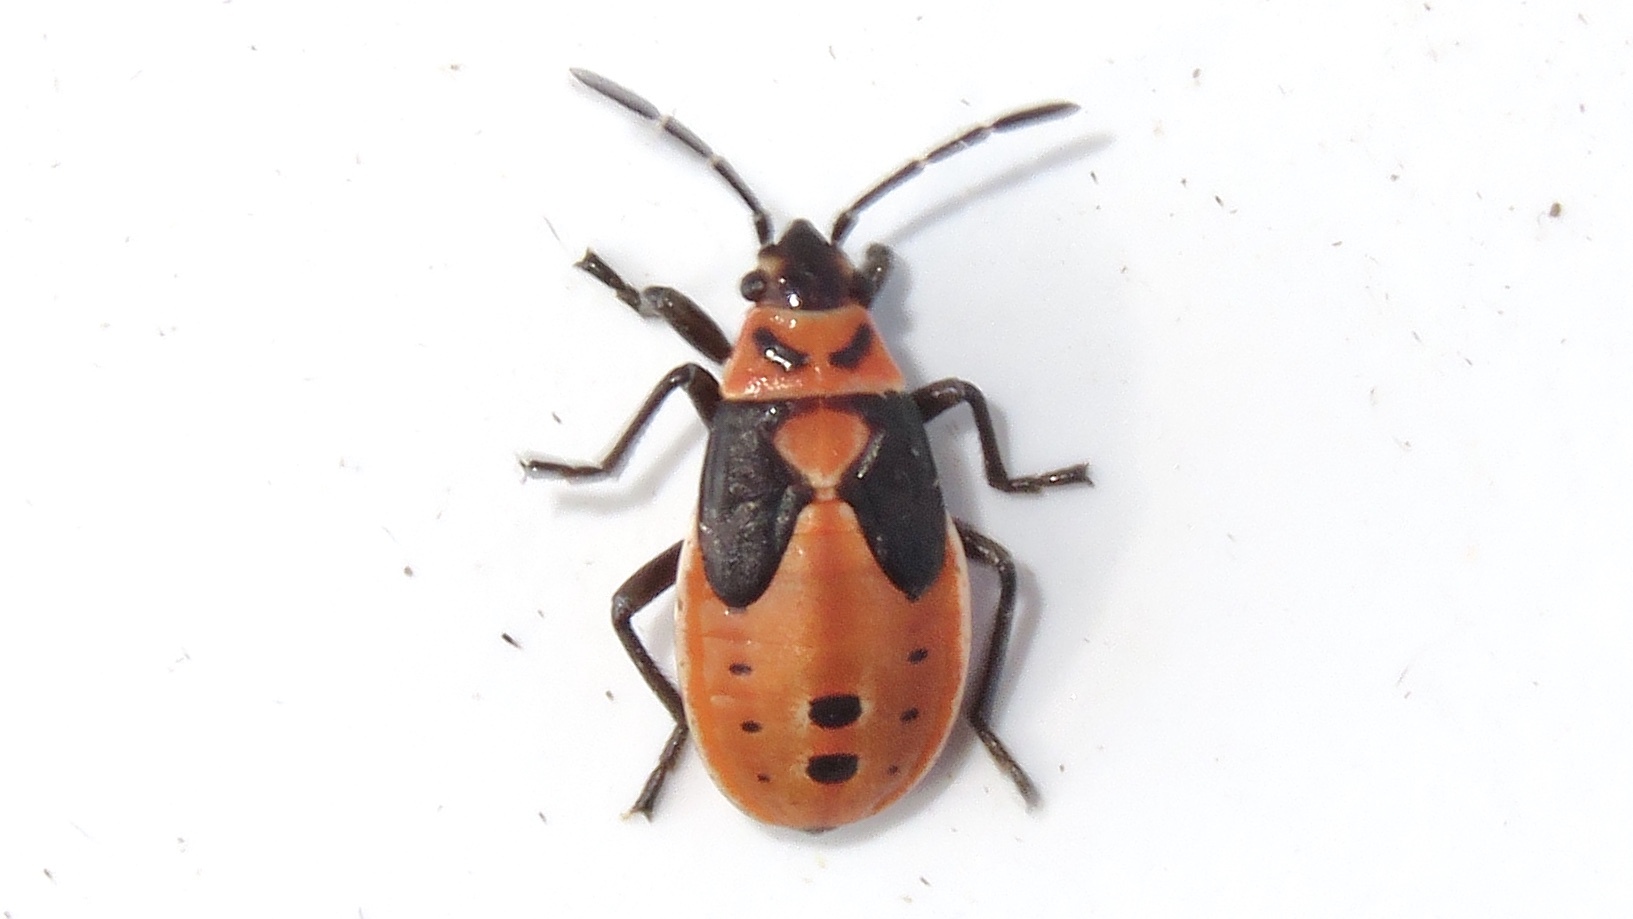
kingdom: Animalia
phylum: Arthropoda
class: Insecta
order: Hemiptera
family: Lygaeidae
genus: Lygaeus
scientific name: Lygaeus kalmii
